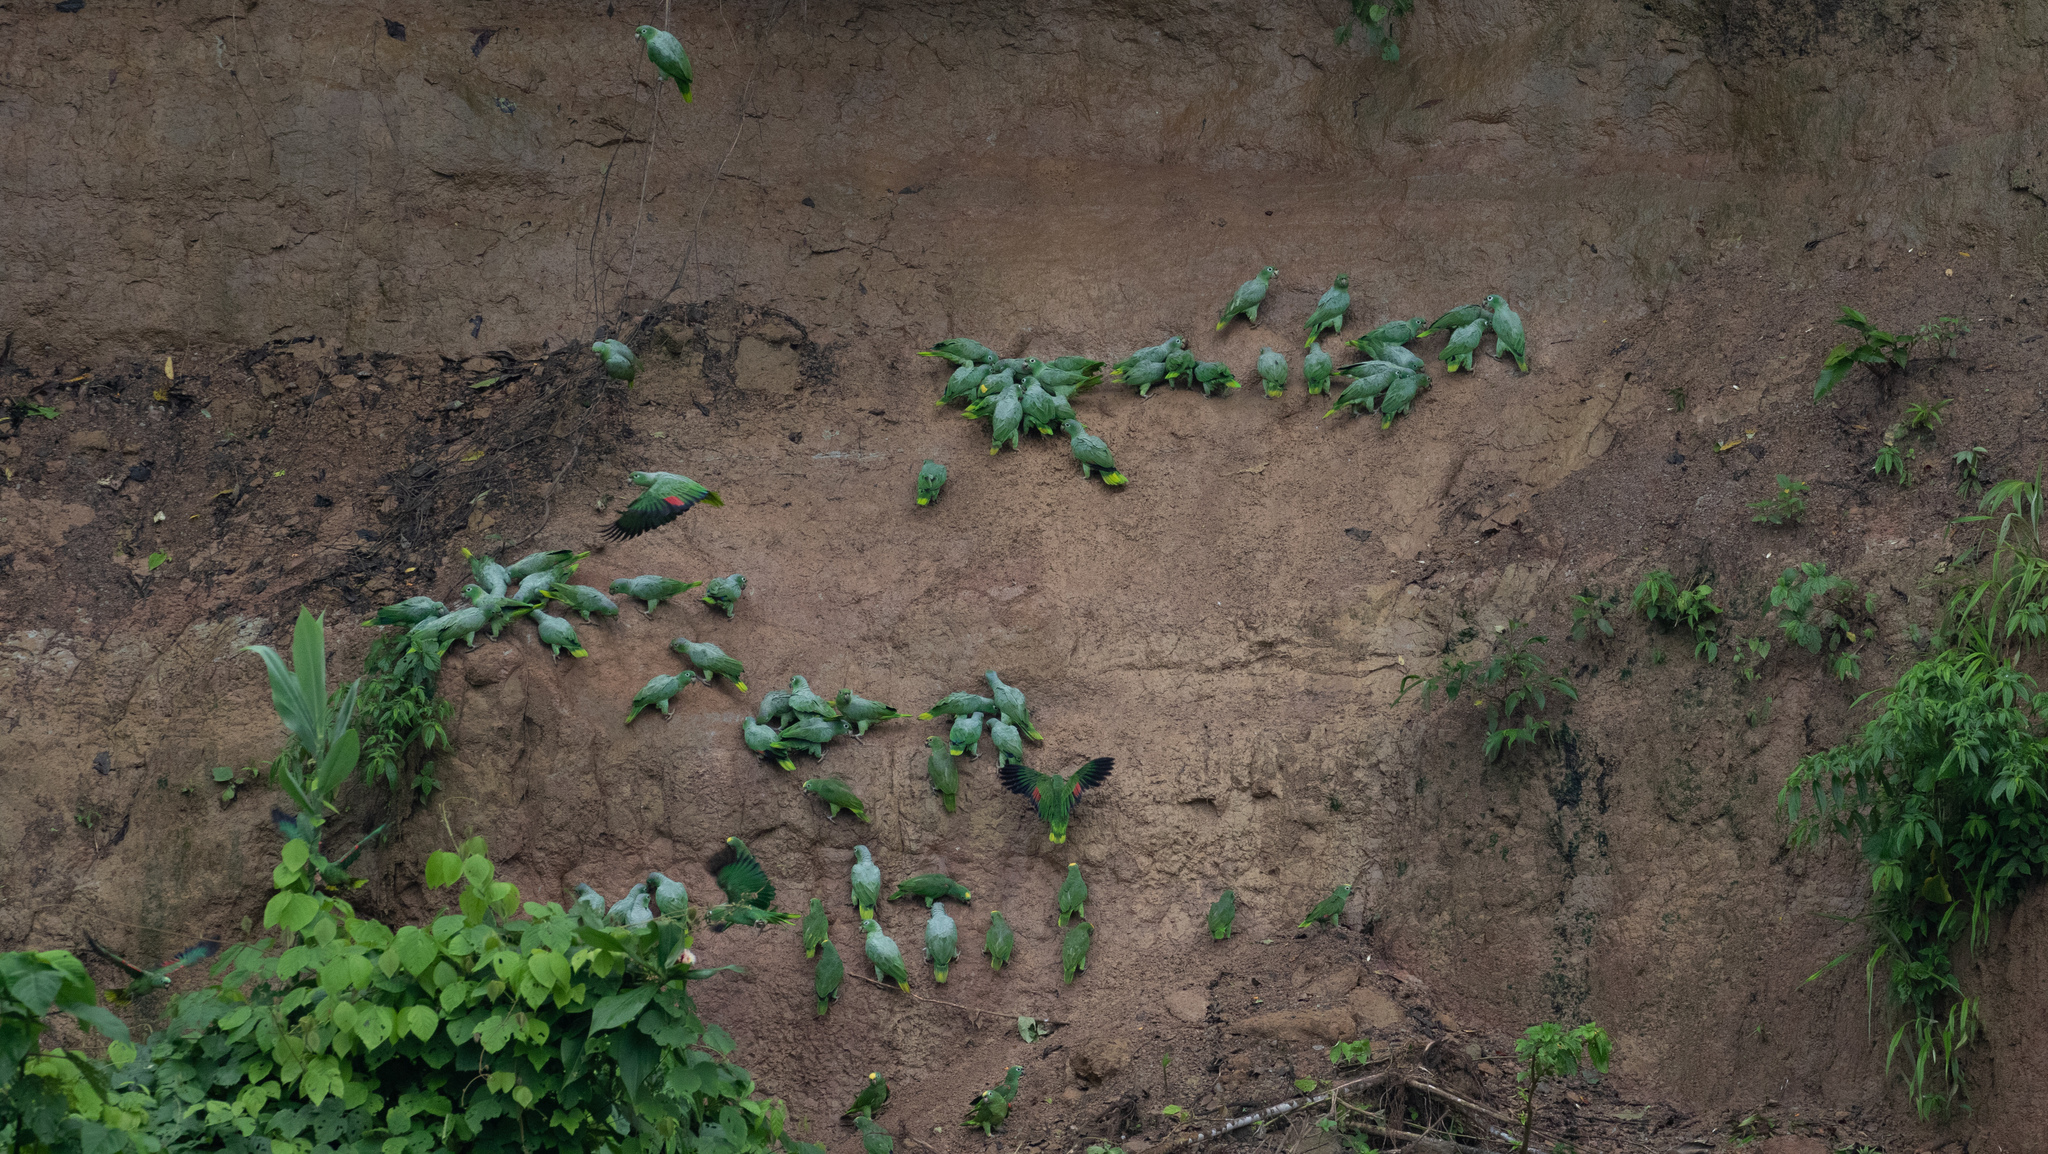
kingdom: Animalia
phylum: Chordata
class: Aves
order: Psittaciformes
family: Psittacidae
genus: Amazona
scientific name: Amazona farinosa
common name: Mealy parrot
